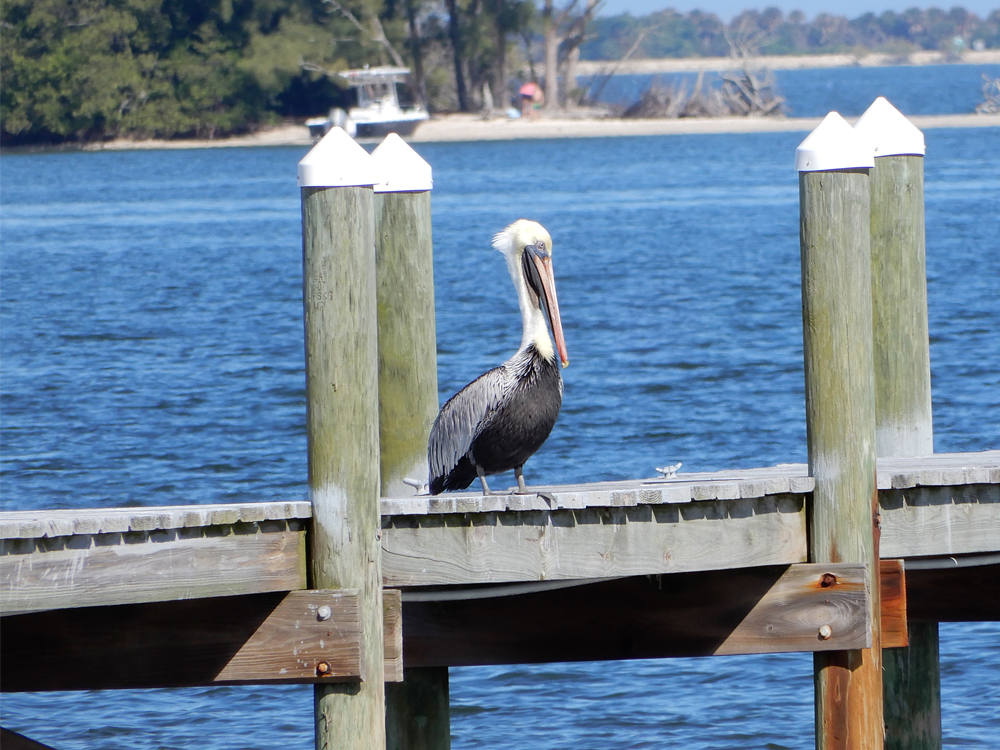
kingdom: Animalia
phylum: Chordata
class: Aves
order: Pelecaniformes
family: Pelecanidae
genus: Pelecanus
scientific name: Pelecanus occidentalis
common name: Brown pelican
